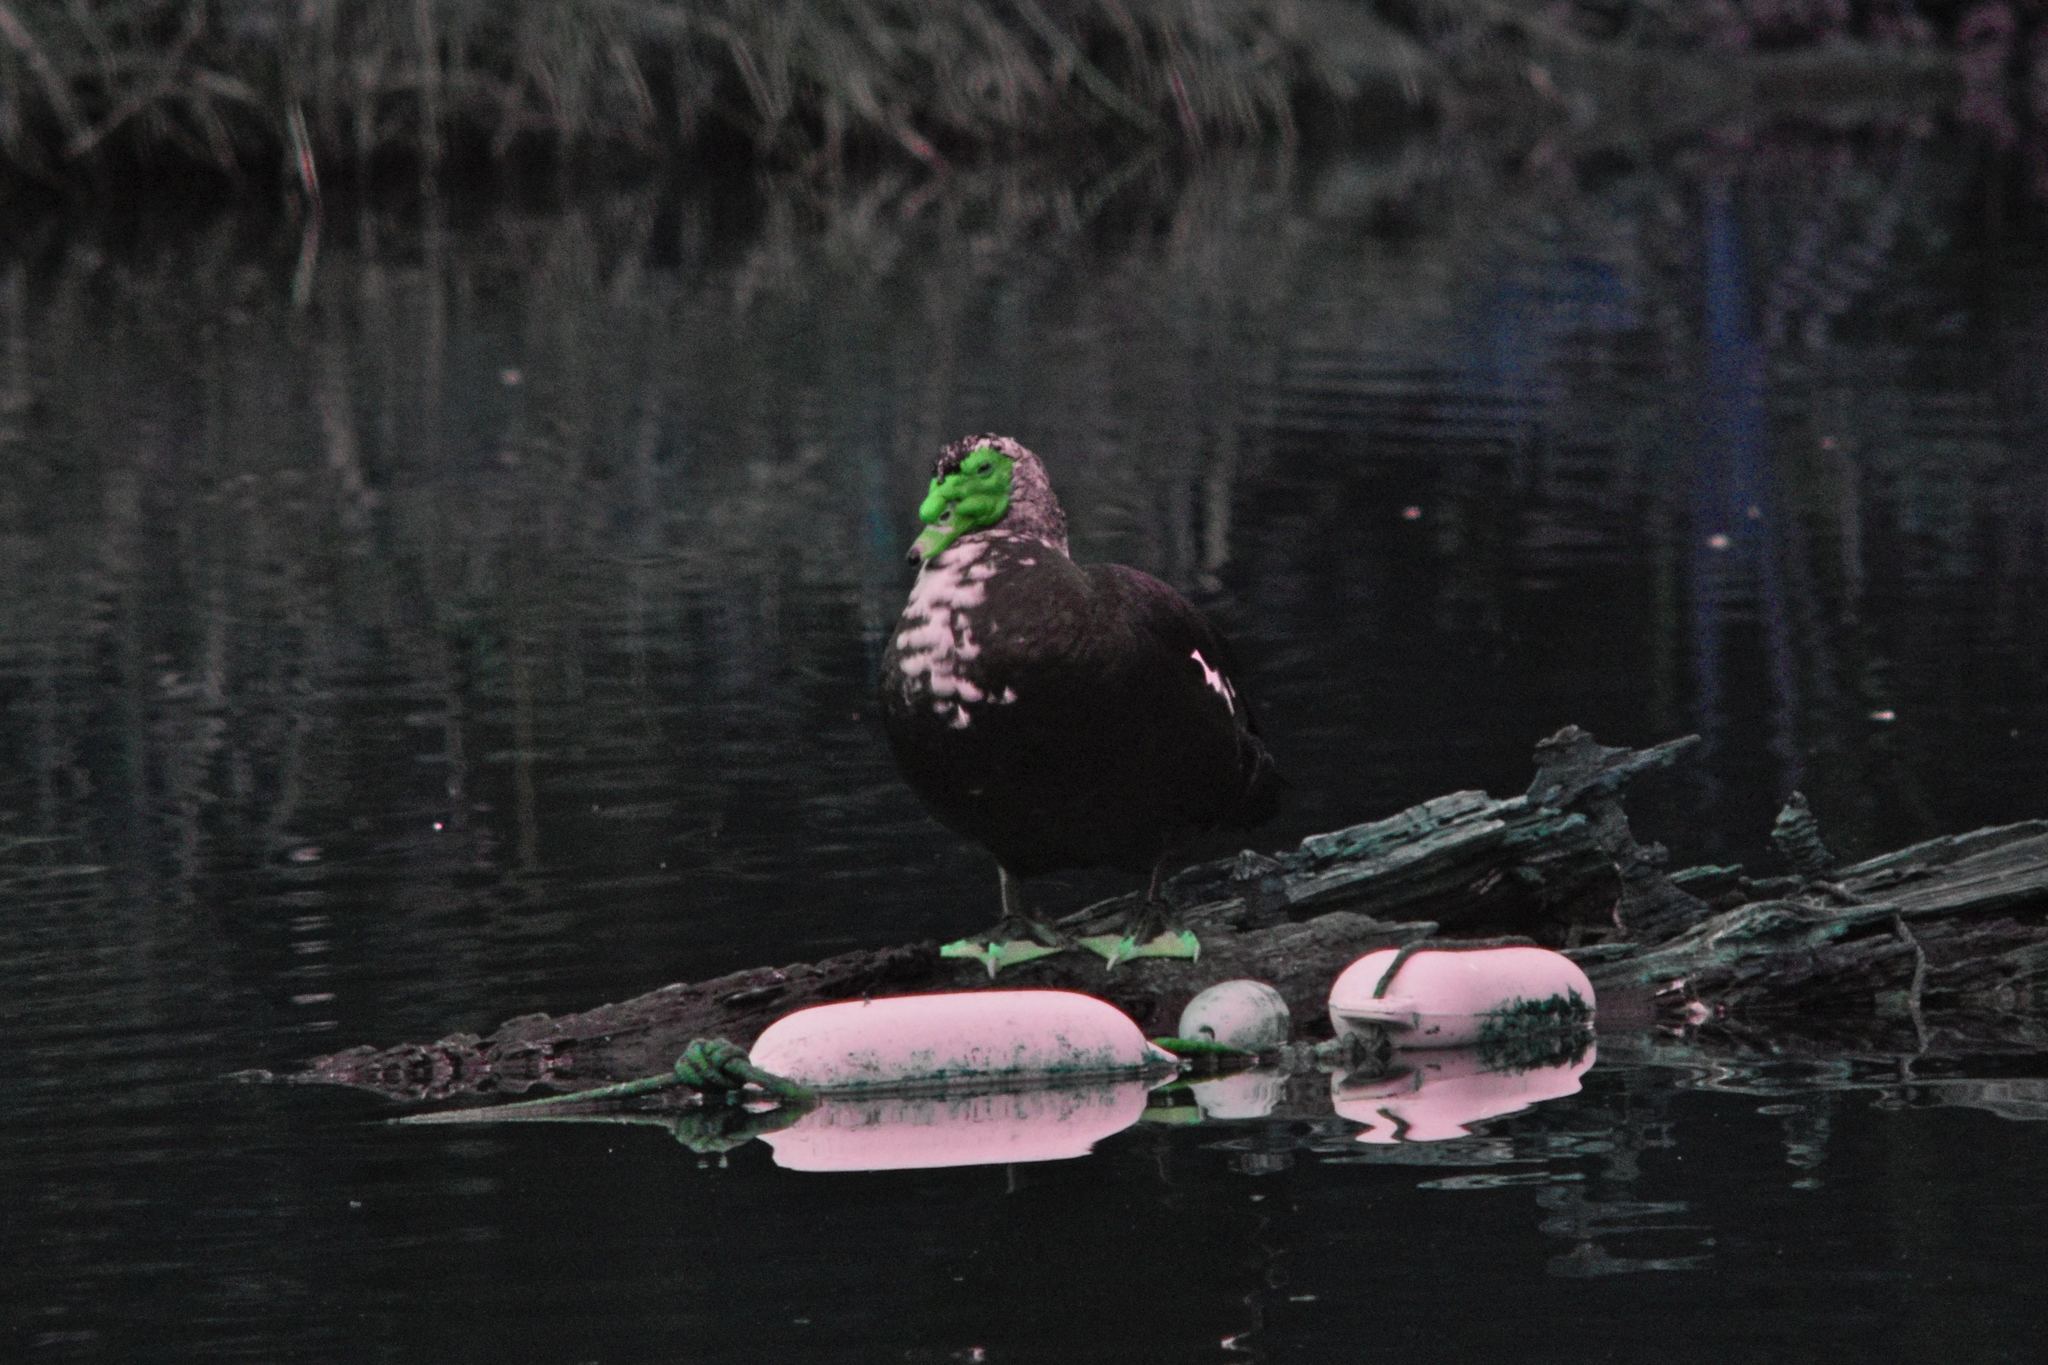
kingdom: Animalia
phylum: Chordata
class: Aves
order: Anseriformes
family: Anatidae
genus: Cairina
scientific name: Cairina moschata
